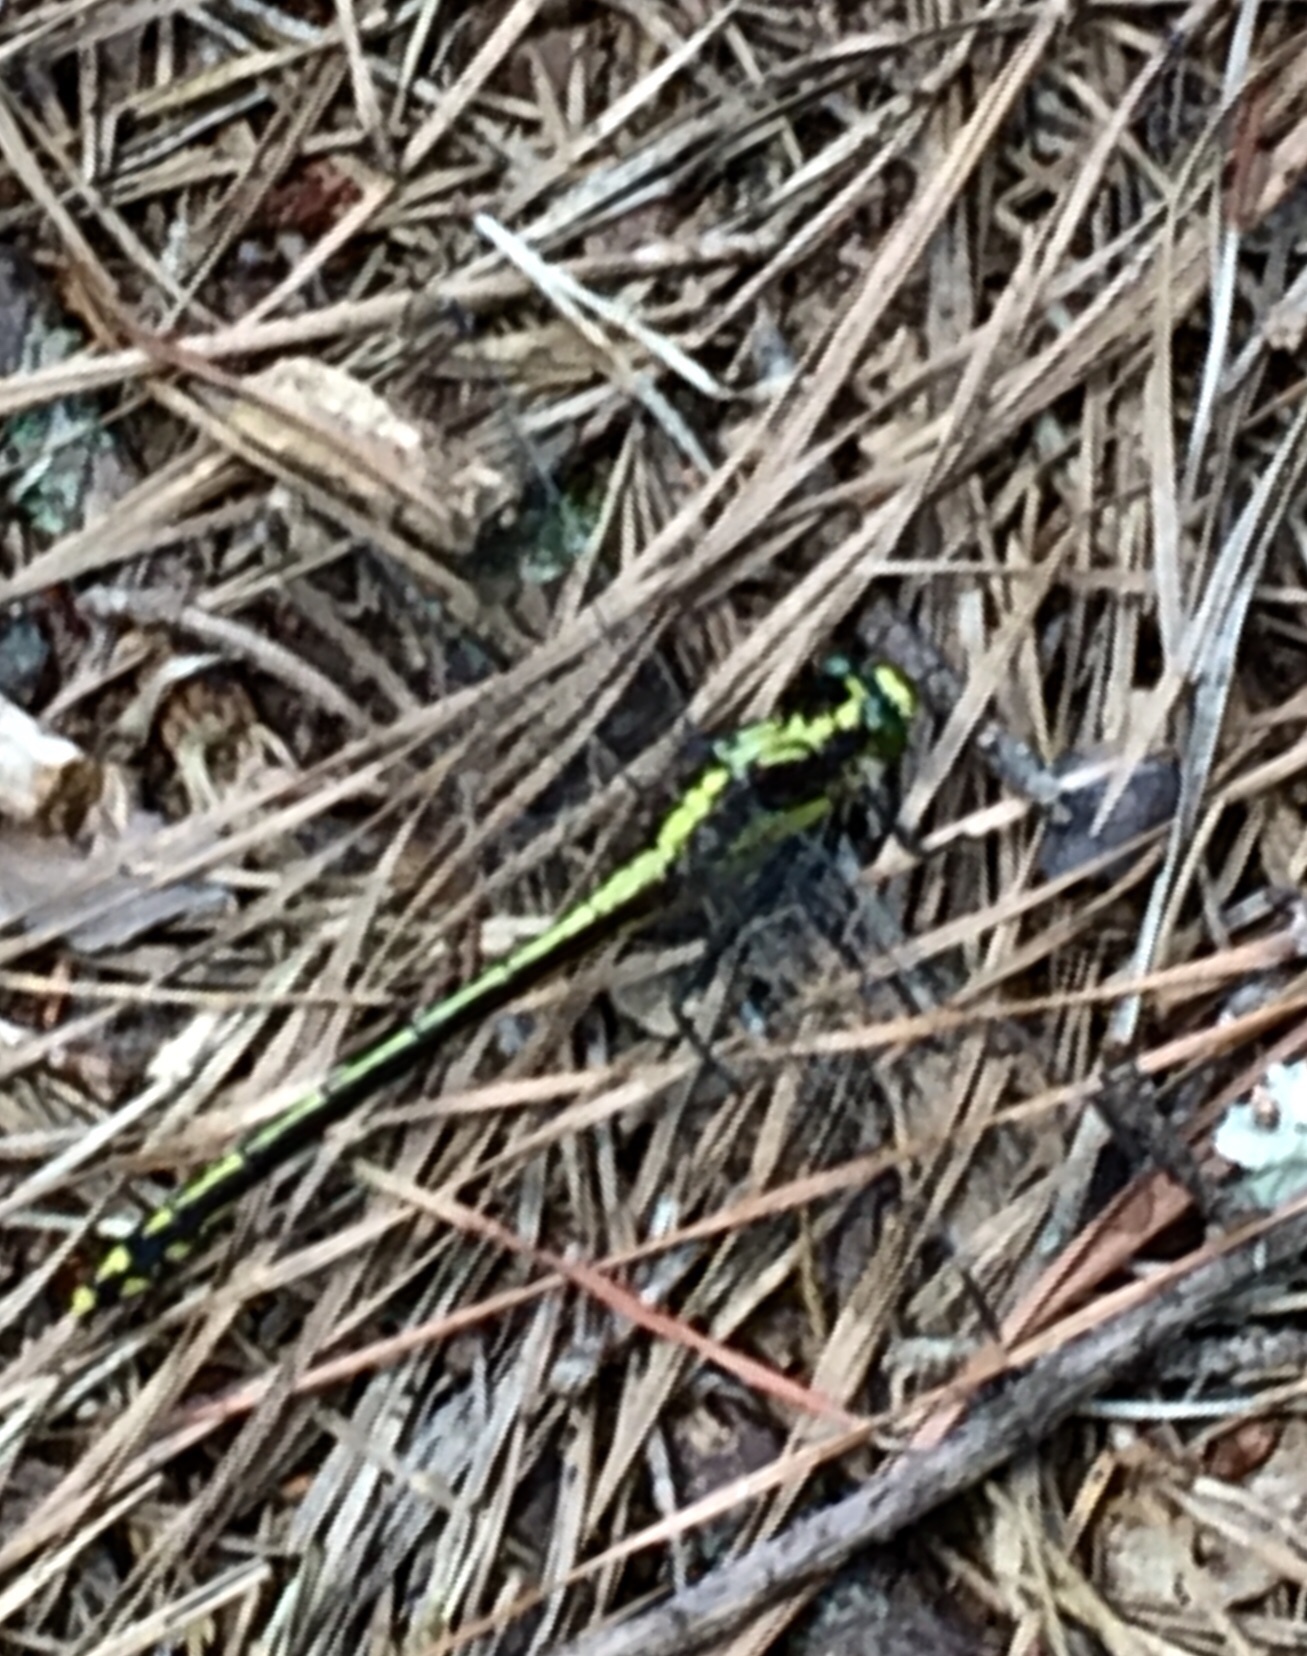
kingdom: Animalia
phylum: Arthropoda
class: Insecta
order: Odonata
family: Gomphidae
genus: Dromogomphus
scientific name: Dromogomphus spinosus
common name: Black-shouldered spinyleg
